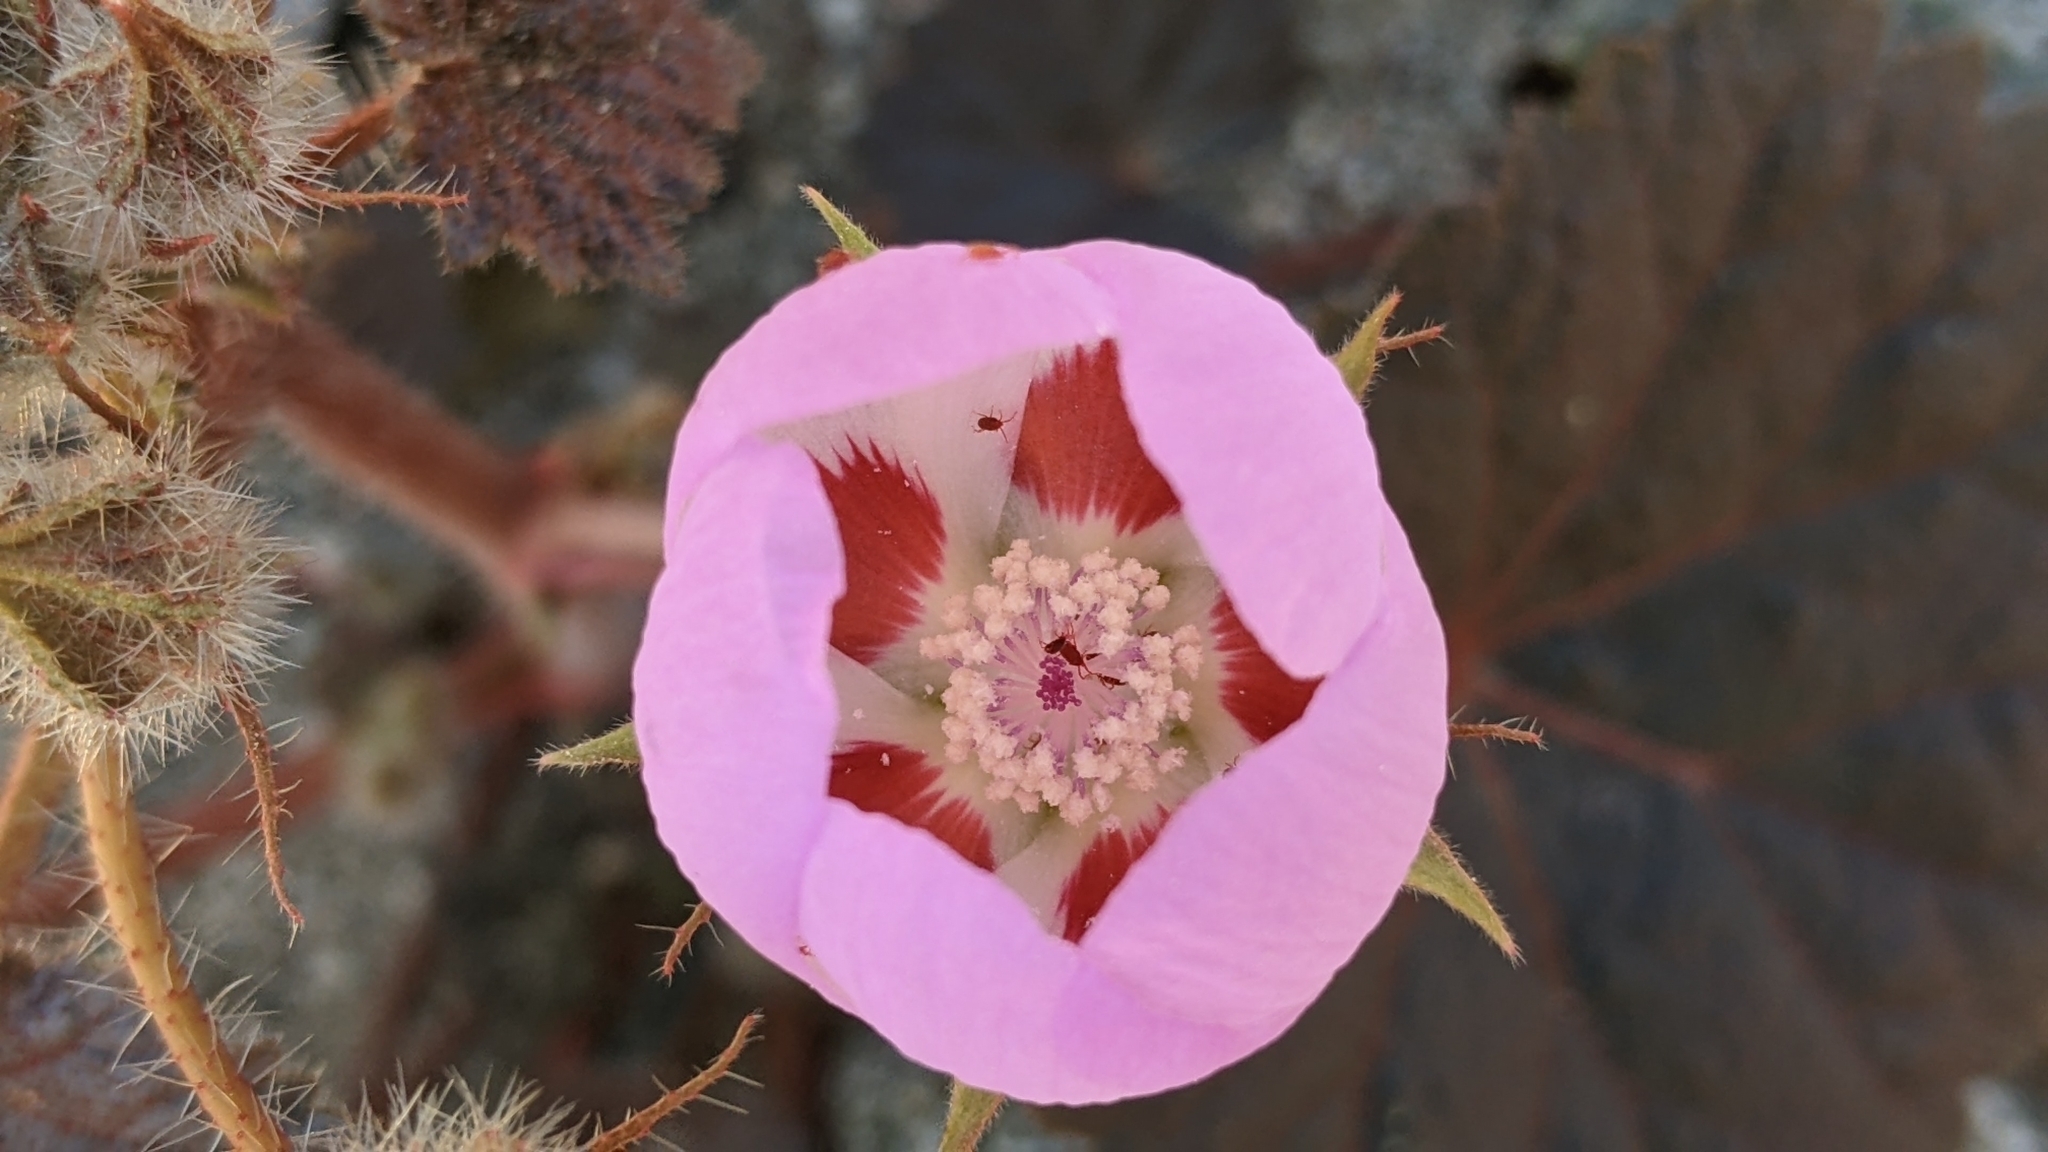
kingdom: Plantae
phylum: Tracheophyta
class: Magnoliopsida
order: Malvales
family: Malvaceae
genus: Eremalche
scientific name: Eremalche rotundifolia
